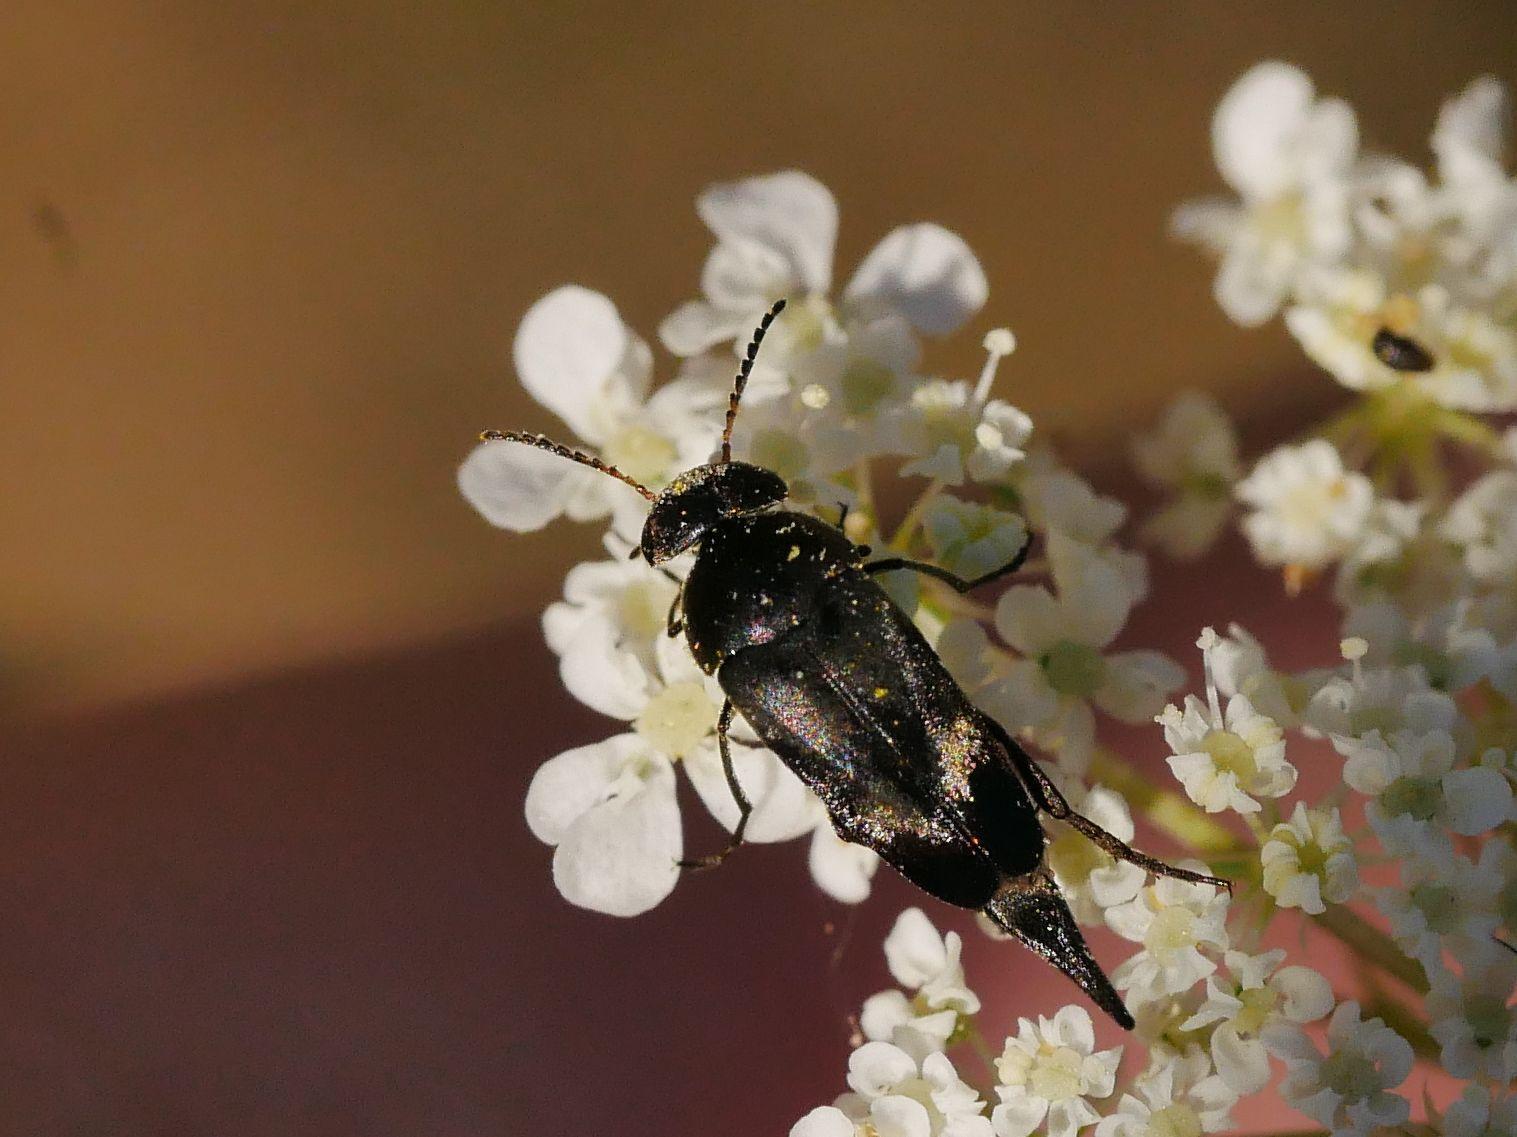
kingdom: Animalia
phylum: Arthropoda
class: Insecta
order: Coleoptera
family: Mordellidae
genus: Variimorda
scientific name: Variimorda villosa
